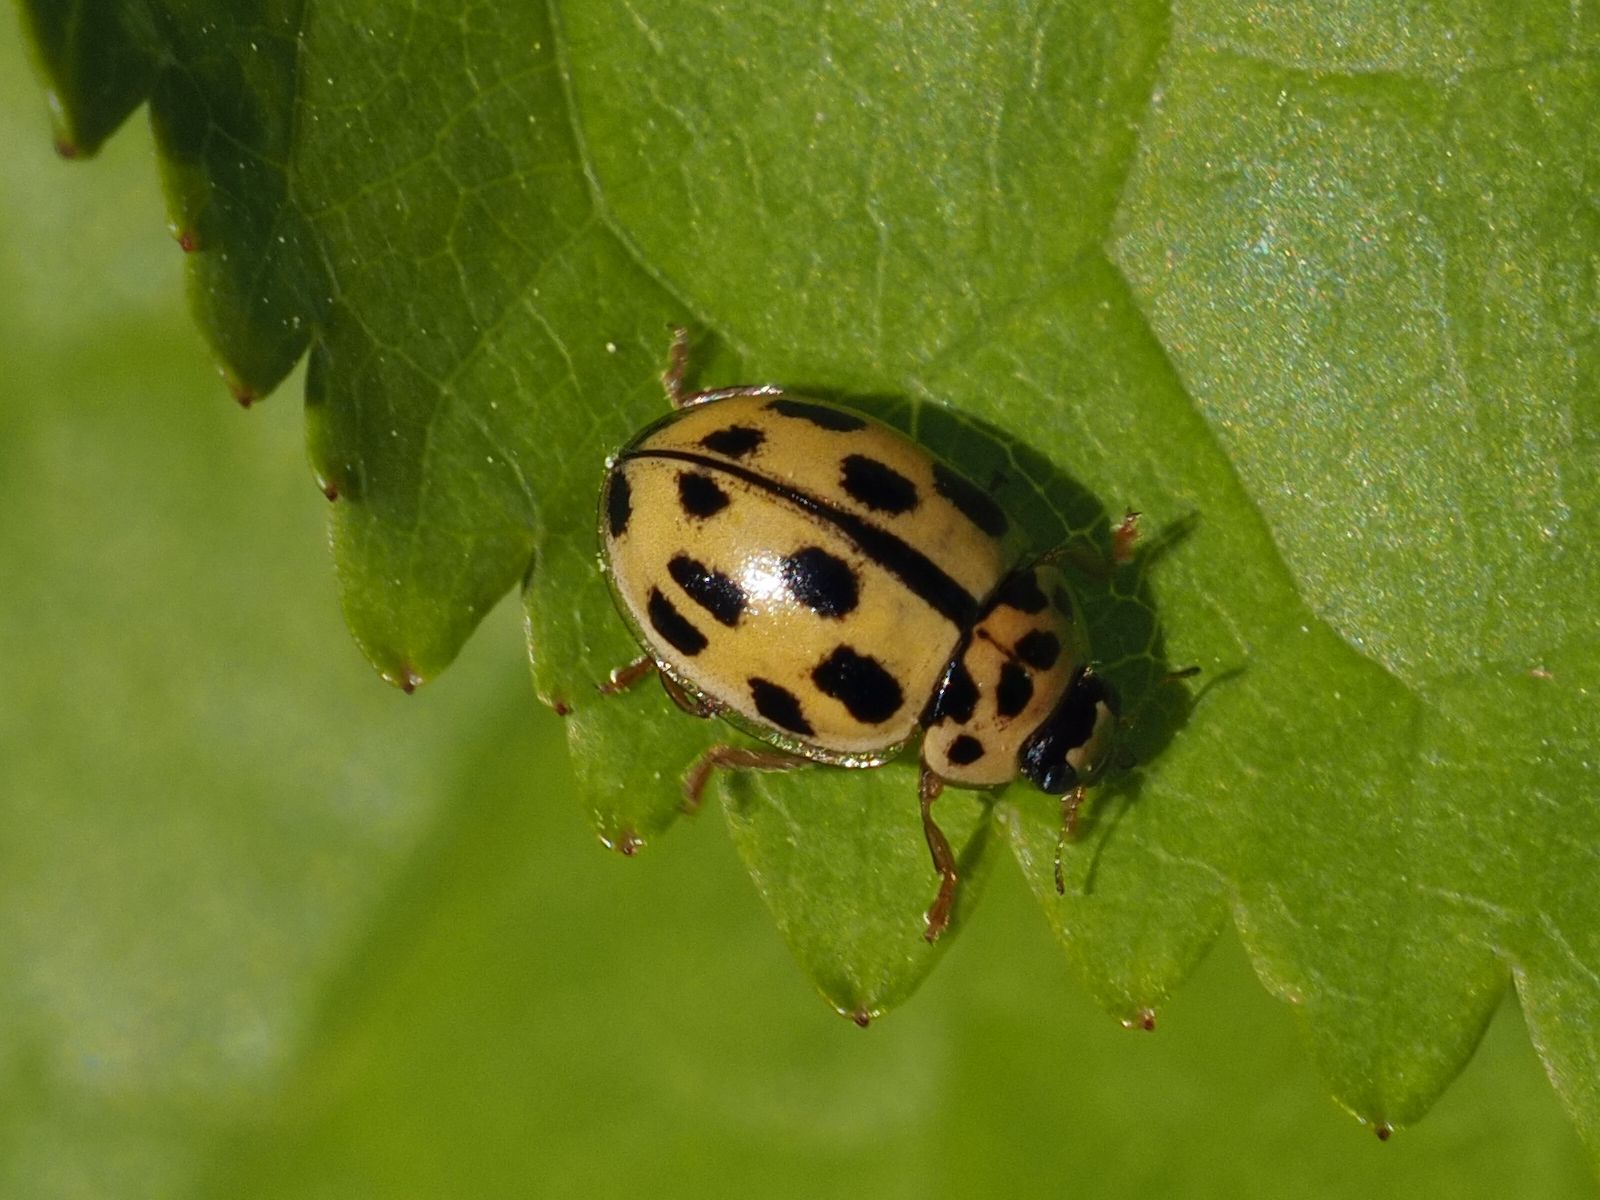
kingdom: Animalia
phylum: Arthropoda
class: Insecta
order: Coleoptera
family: Coccinellidae
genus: Propylaea
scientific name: Propylaea quatuordecimpunctata
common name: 14-spotted ladybird beetle
